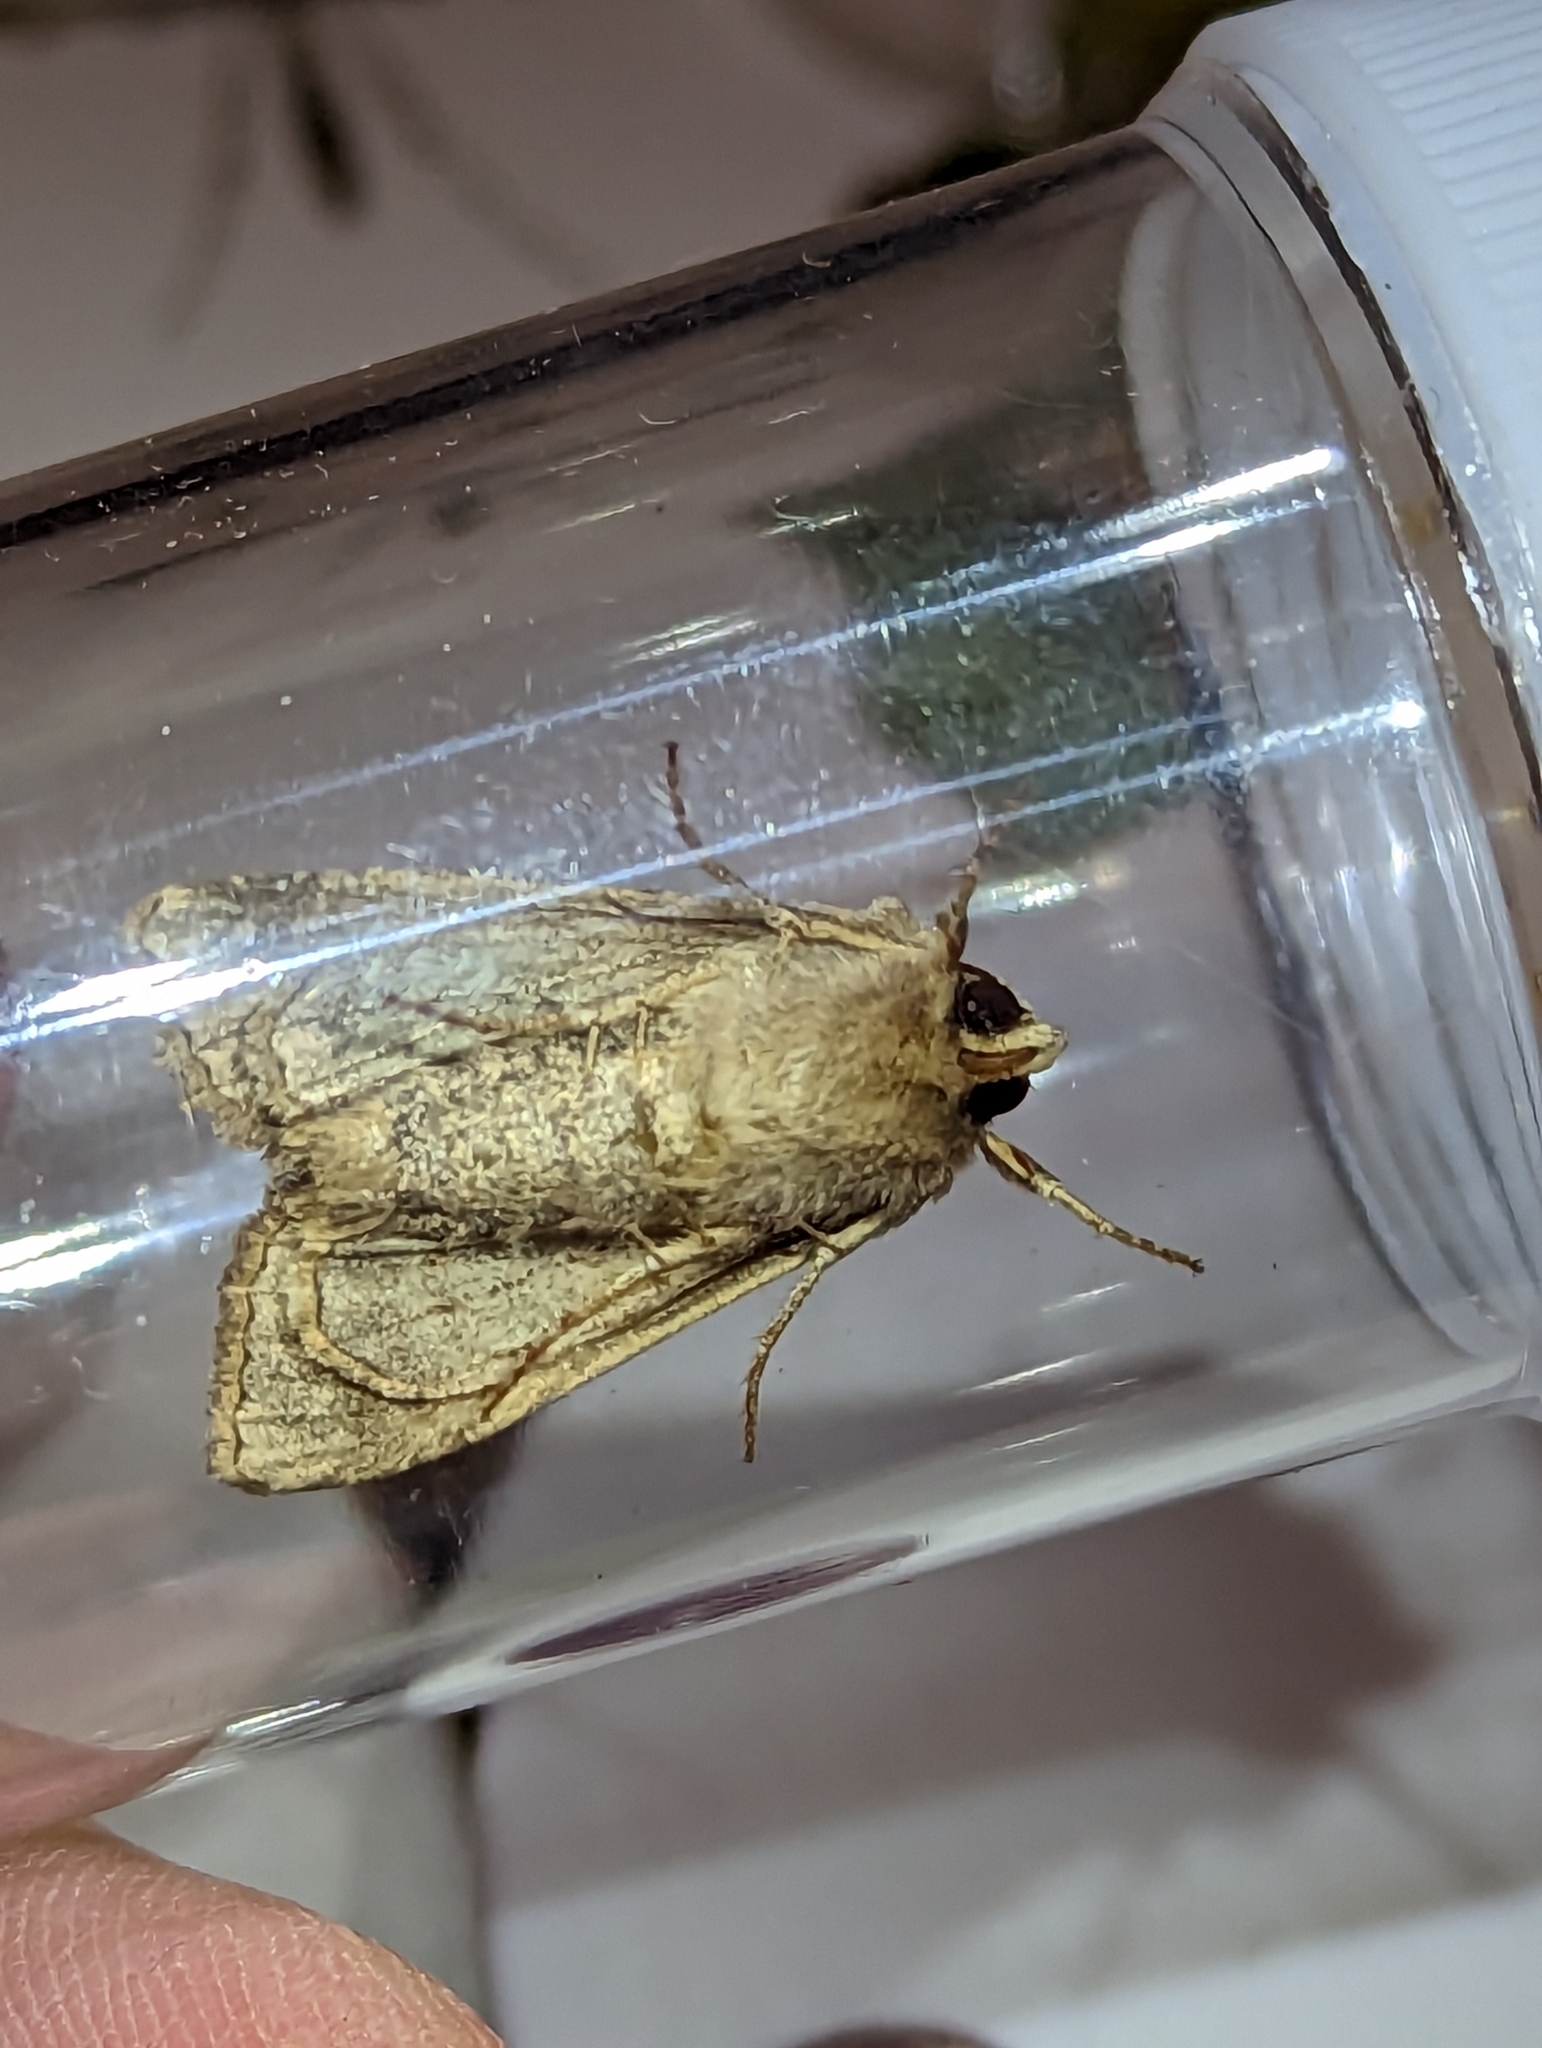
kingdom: Animalia
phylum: Arthropoda
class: Insecta
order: Lepidoptera
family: Noctuidae
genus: Apamea
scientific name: Apamea sordens
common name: Rustic shoulder-knot
